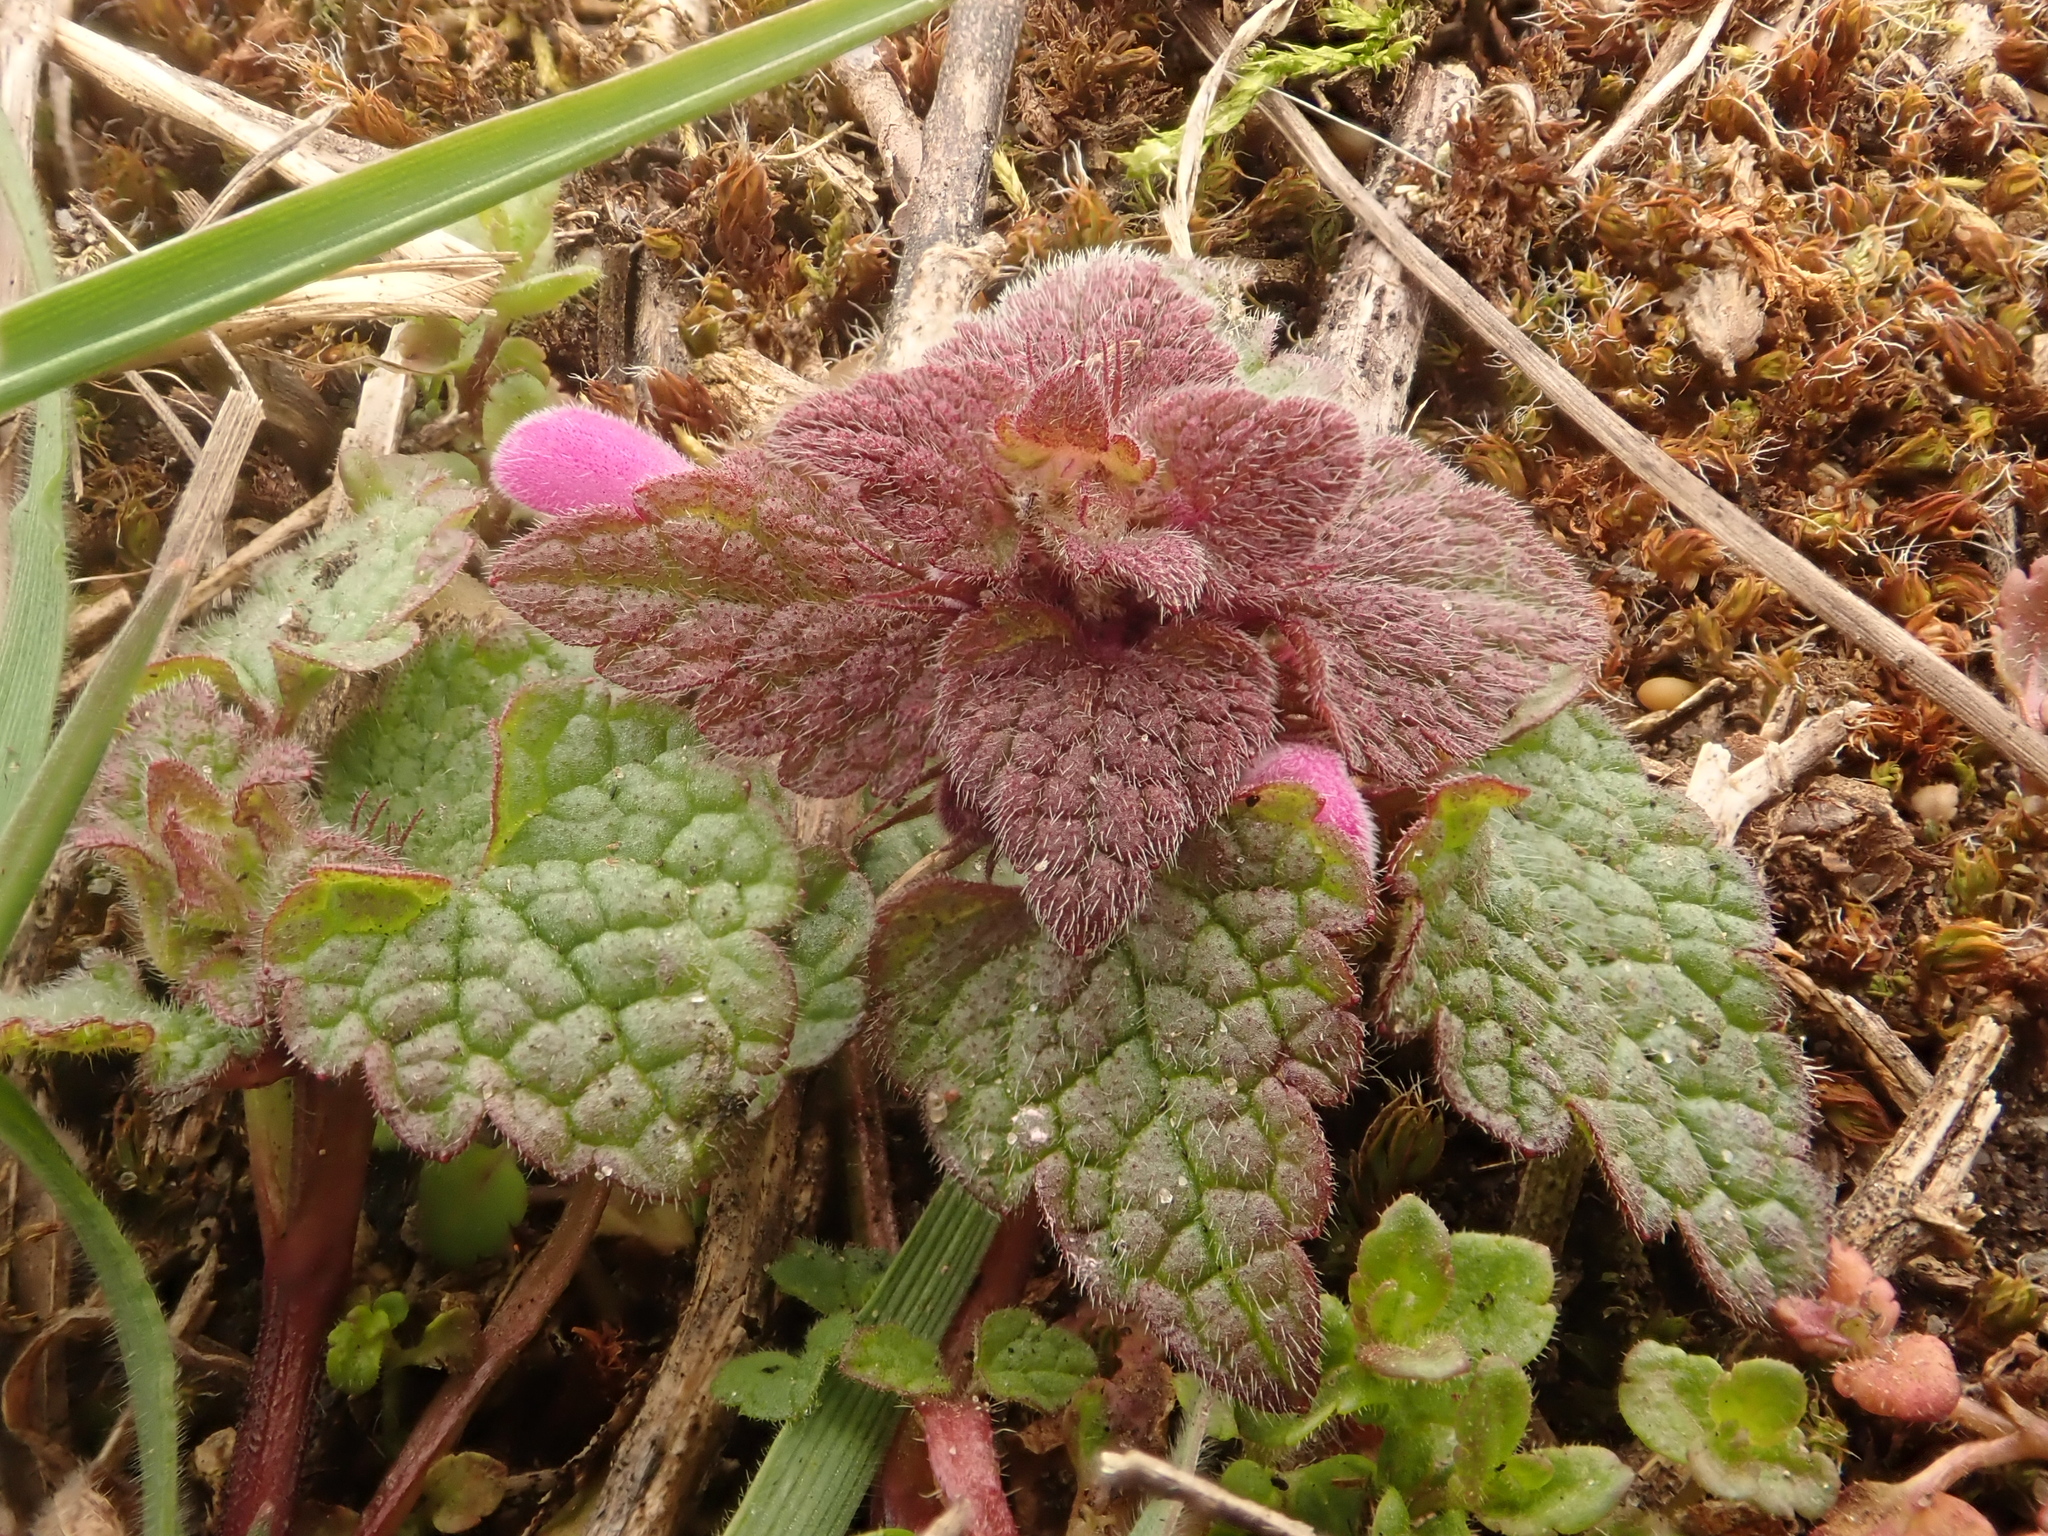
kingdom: Plantae
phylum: Tracheophyta
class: Magnoliopsida
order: Lamiales
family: Lamiaceae
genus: Lamium
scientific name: Lamium purpureum
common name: Red dead-nettle
